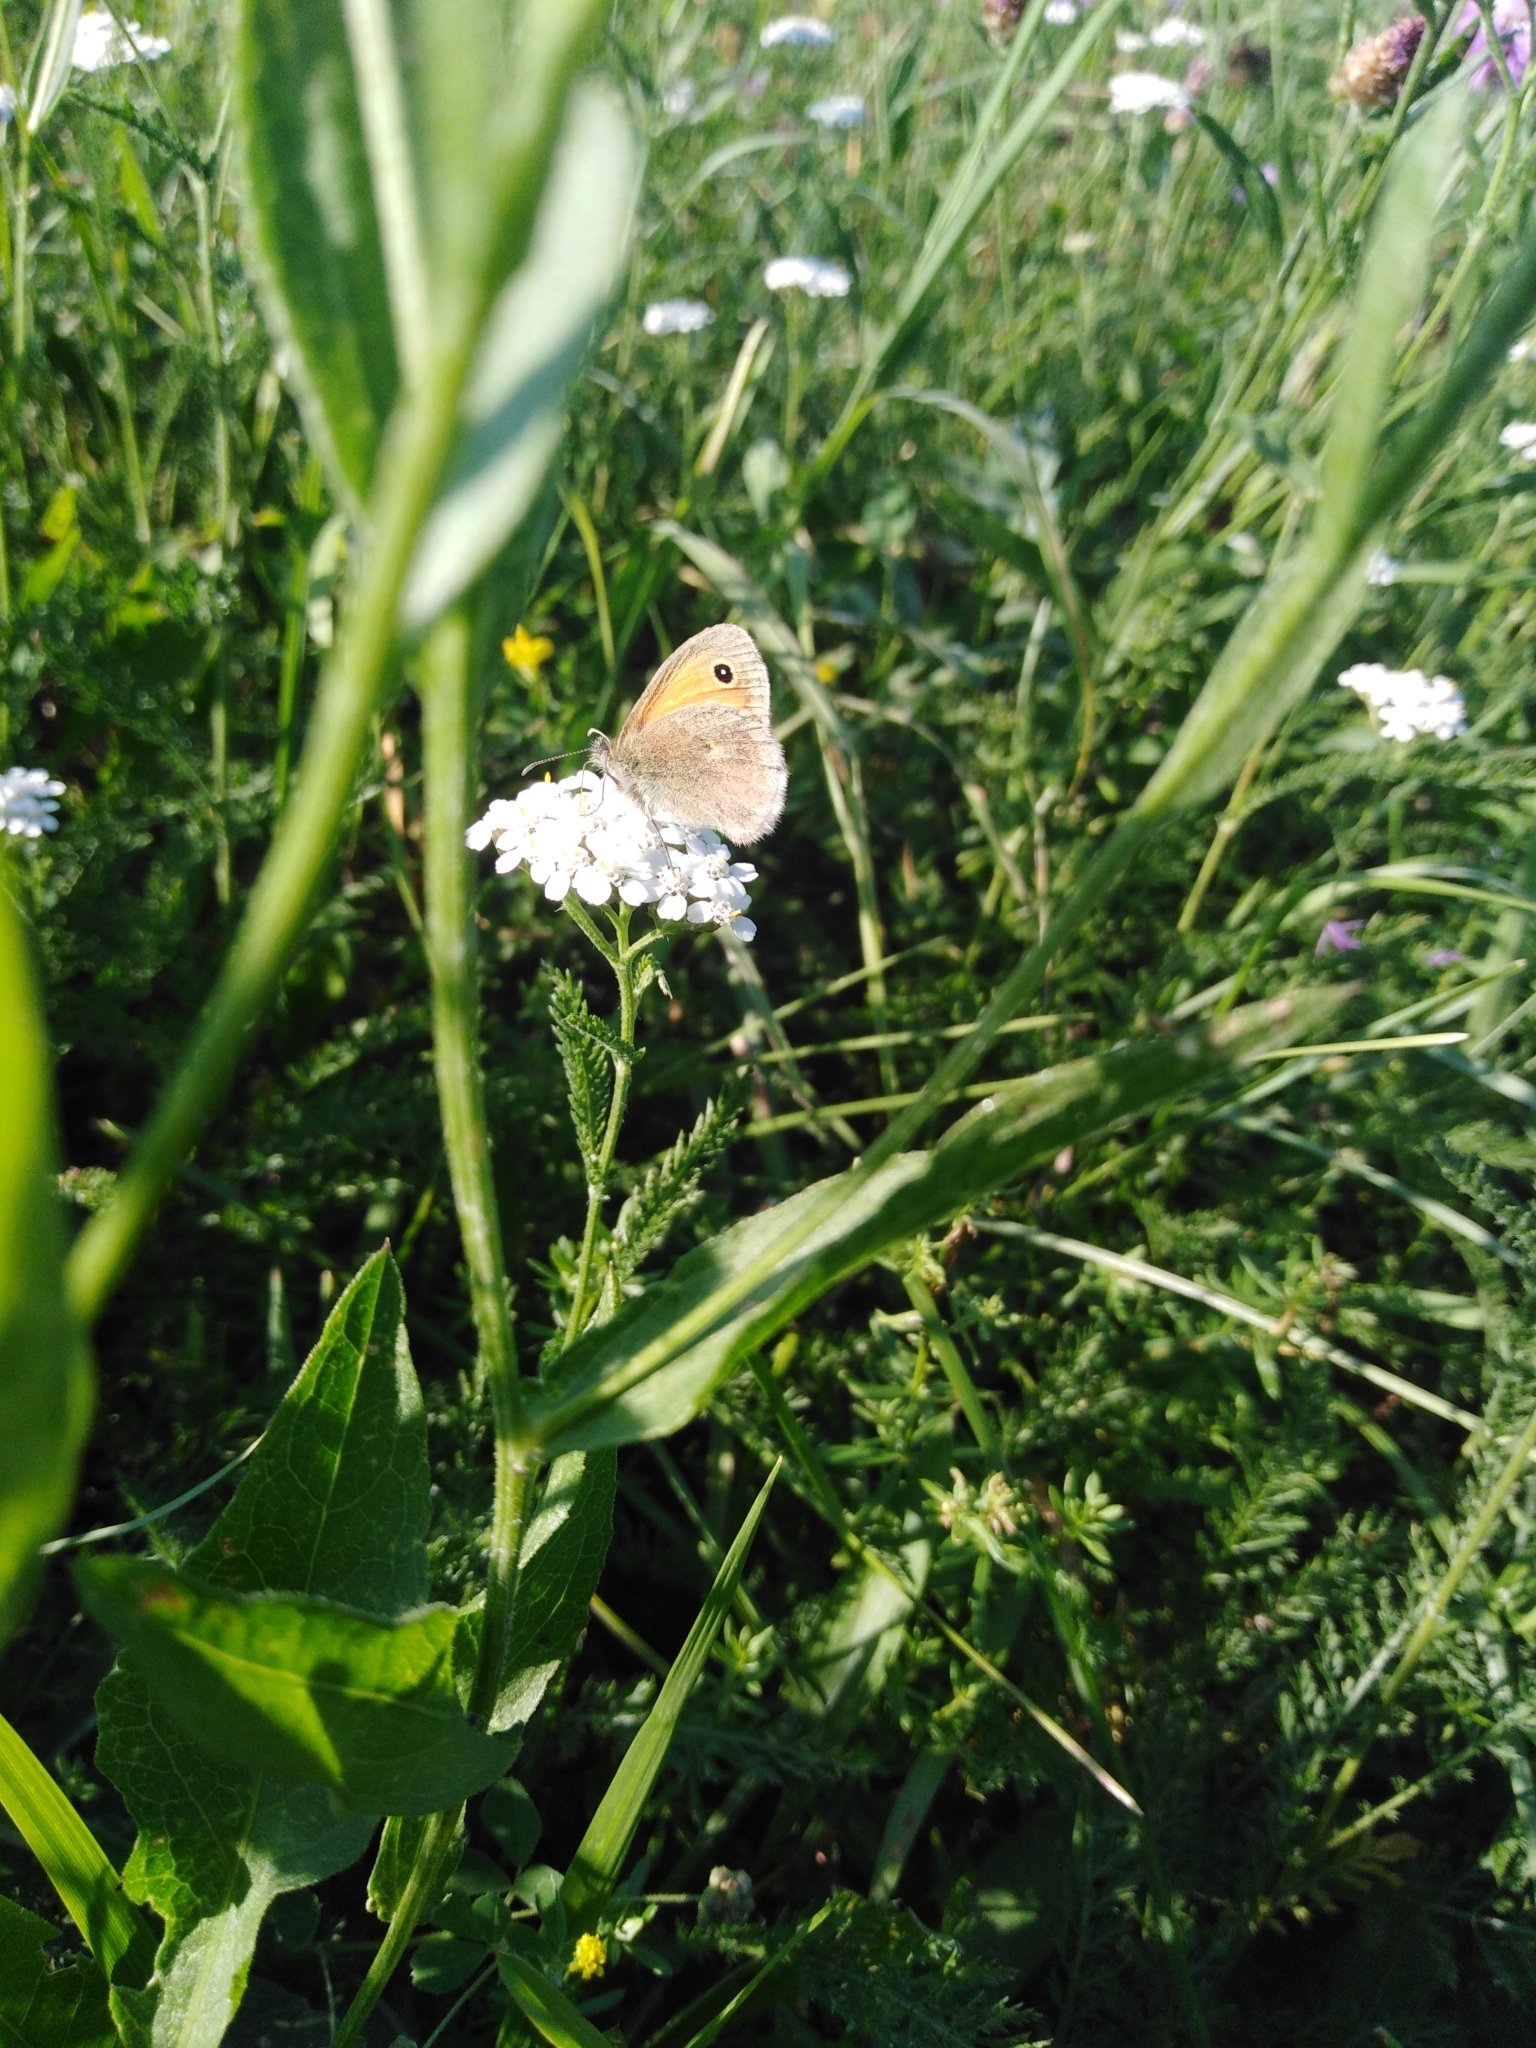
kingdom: Animalia
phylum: Arthropoda
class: Insecta
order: Lepidoptera
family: Nymphalidae
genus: Coenonympha
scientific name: Coenonympha pamphilus
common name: Small heath
